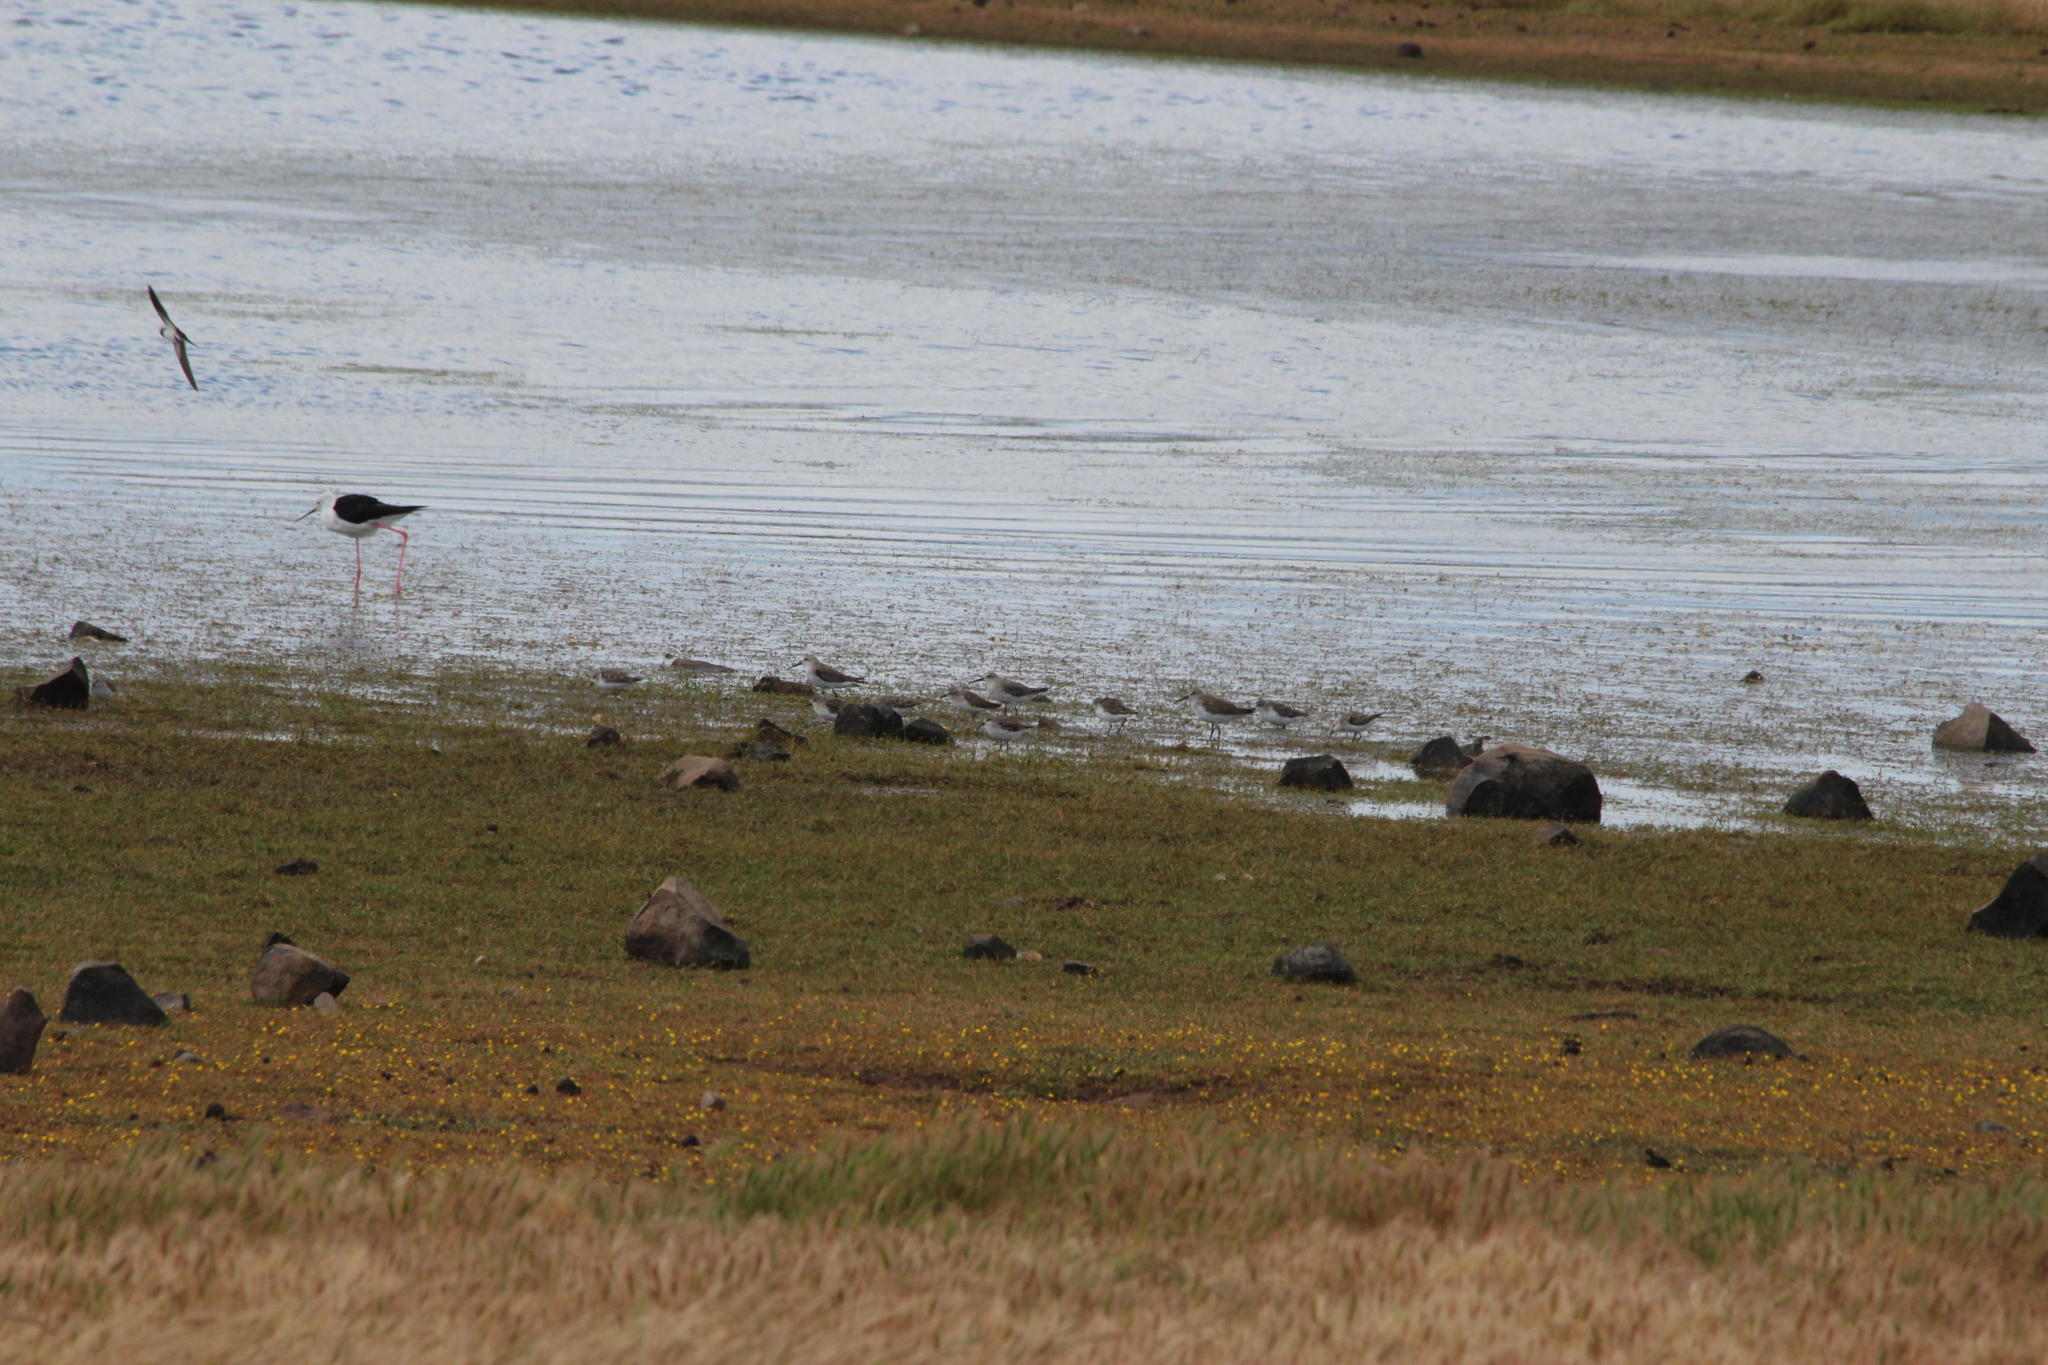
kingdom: Animalia
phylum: Chordata
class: Aves
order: Charadriiformes
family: Scolopacidae
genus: Calidris
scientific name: Calidris minuta
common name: Little stint
